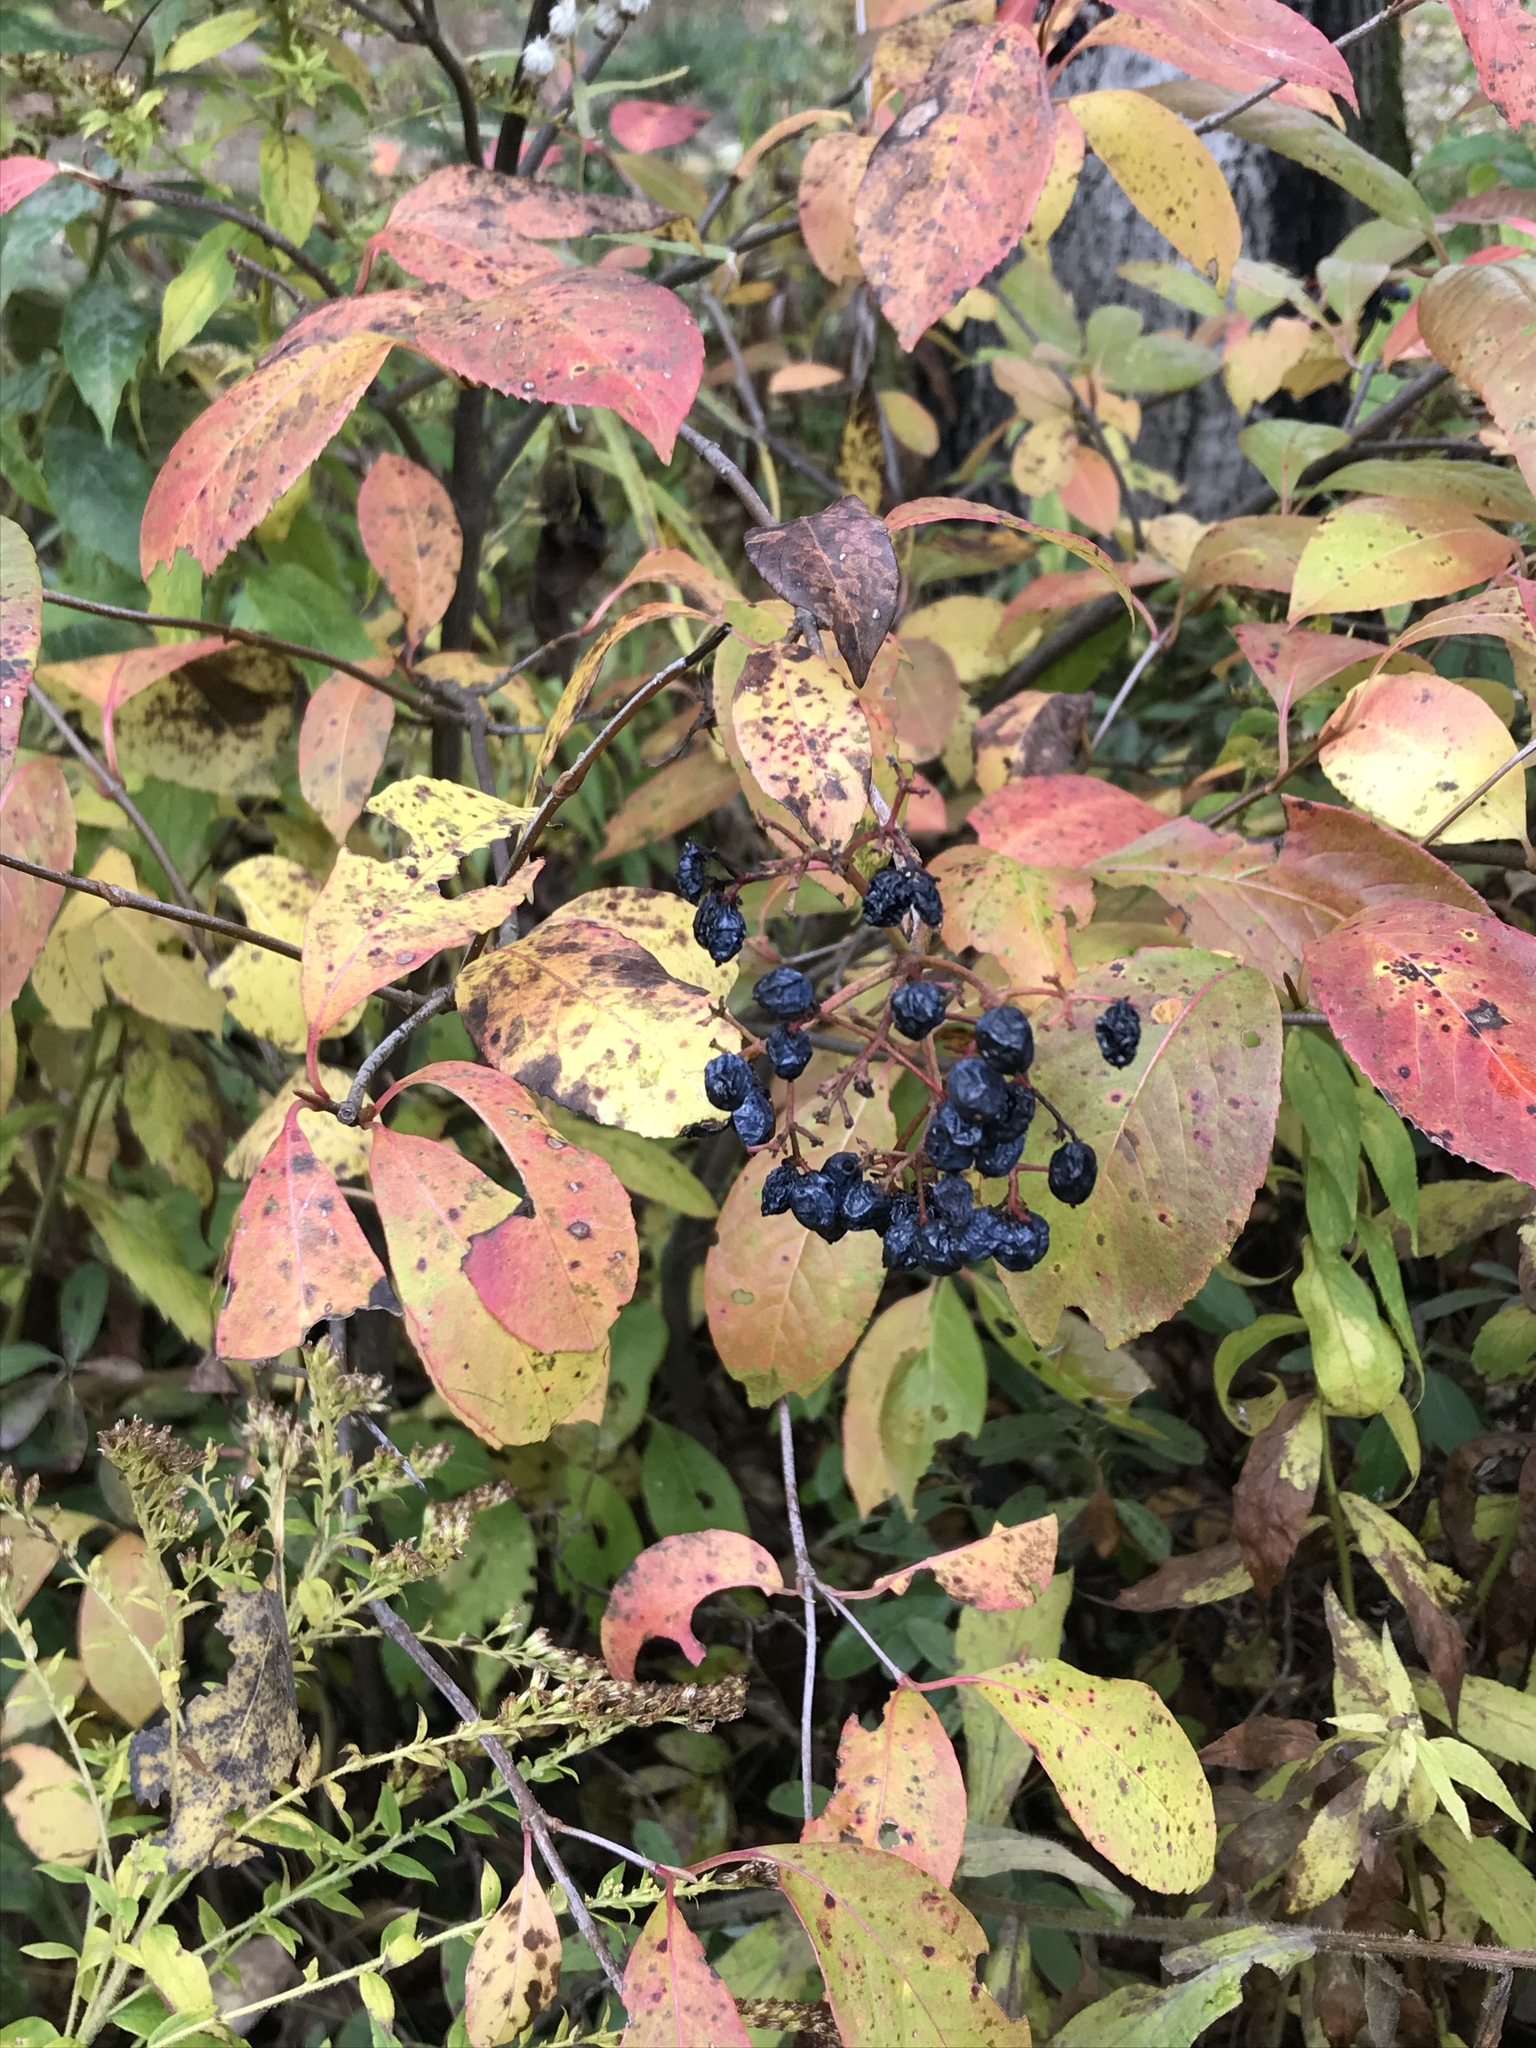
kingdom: Plantae
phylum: Tracheophyta
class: Magnoliopsida
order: Dipsacales
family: Viburnaceae
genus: Viburnum
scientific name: Viburnum cassinoides
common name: Swamp haw
